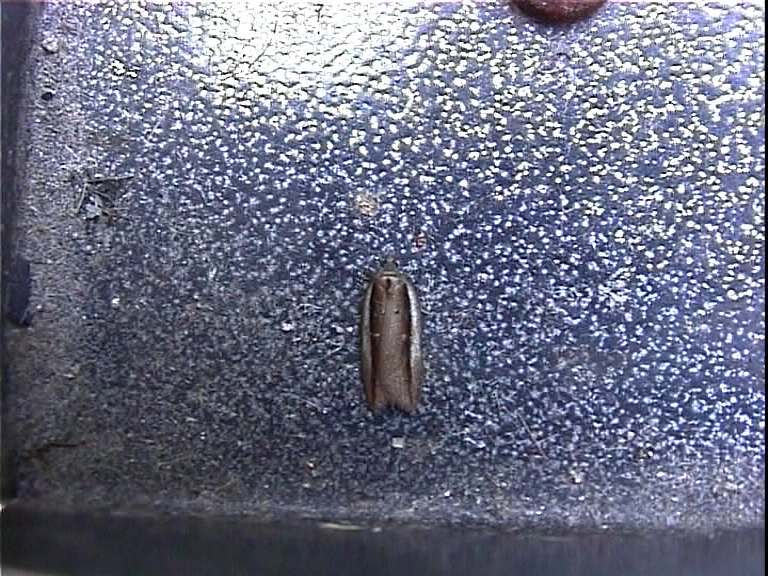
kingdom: Animalia
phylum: Arthropoda
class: Insecta
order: Lepidoptera
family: Tortricidae
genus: Acleris
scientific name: Acleris hastiana
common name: Sallow button
